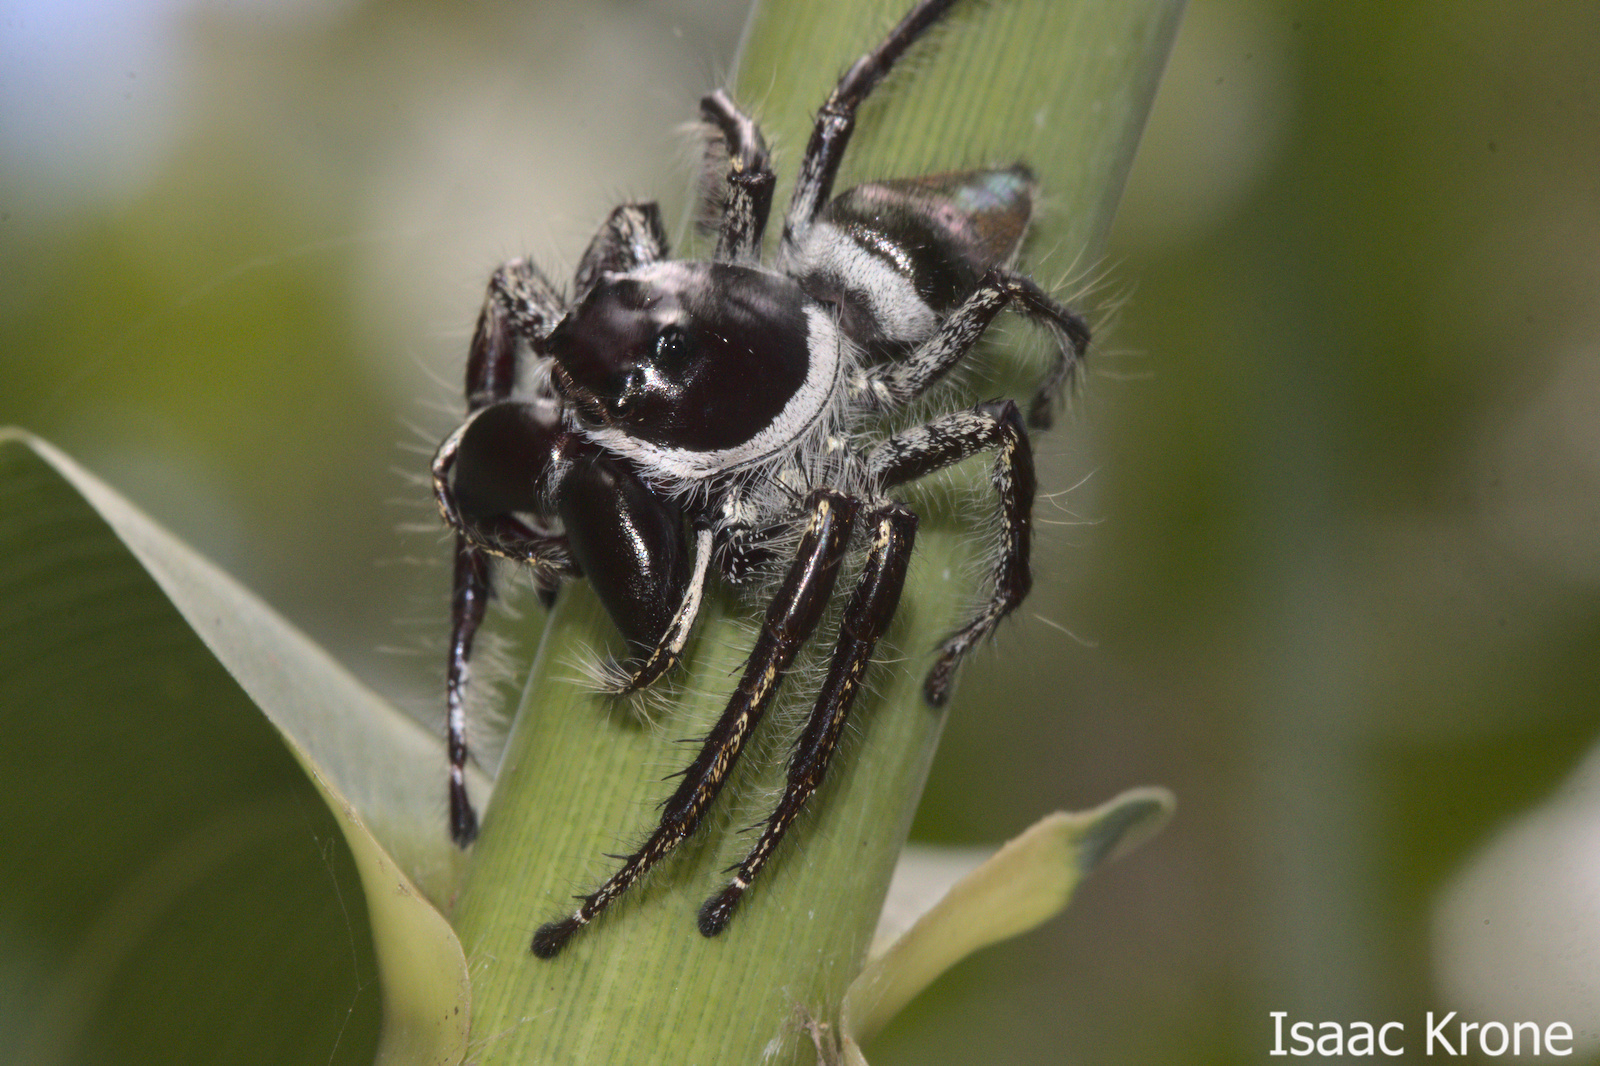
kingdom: Animalia
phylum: Arthropoda
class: Arachnida
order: Araneae
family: Salticidae
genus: Hyllus
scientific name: Hyllus walckenaeri
